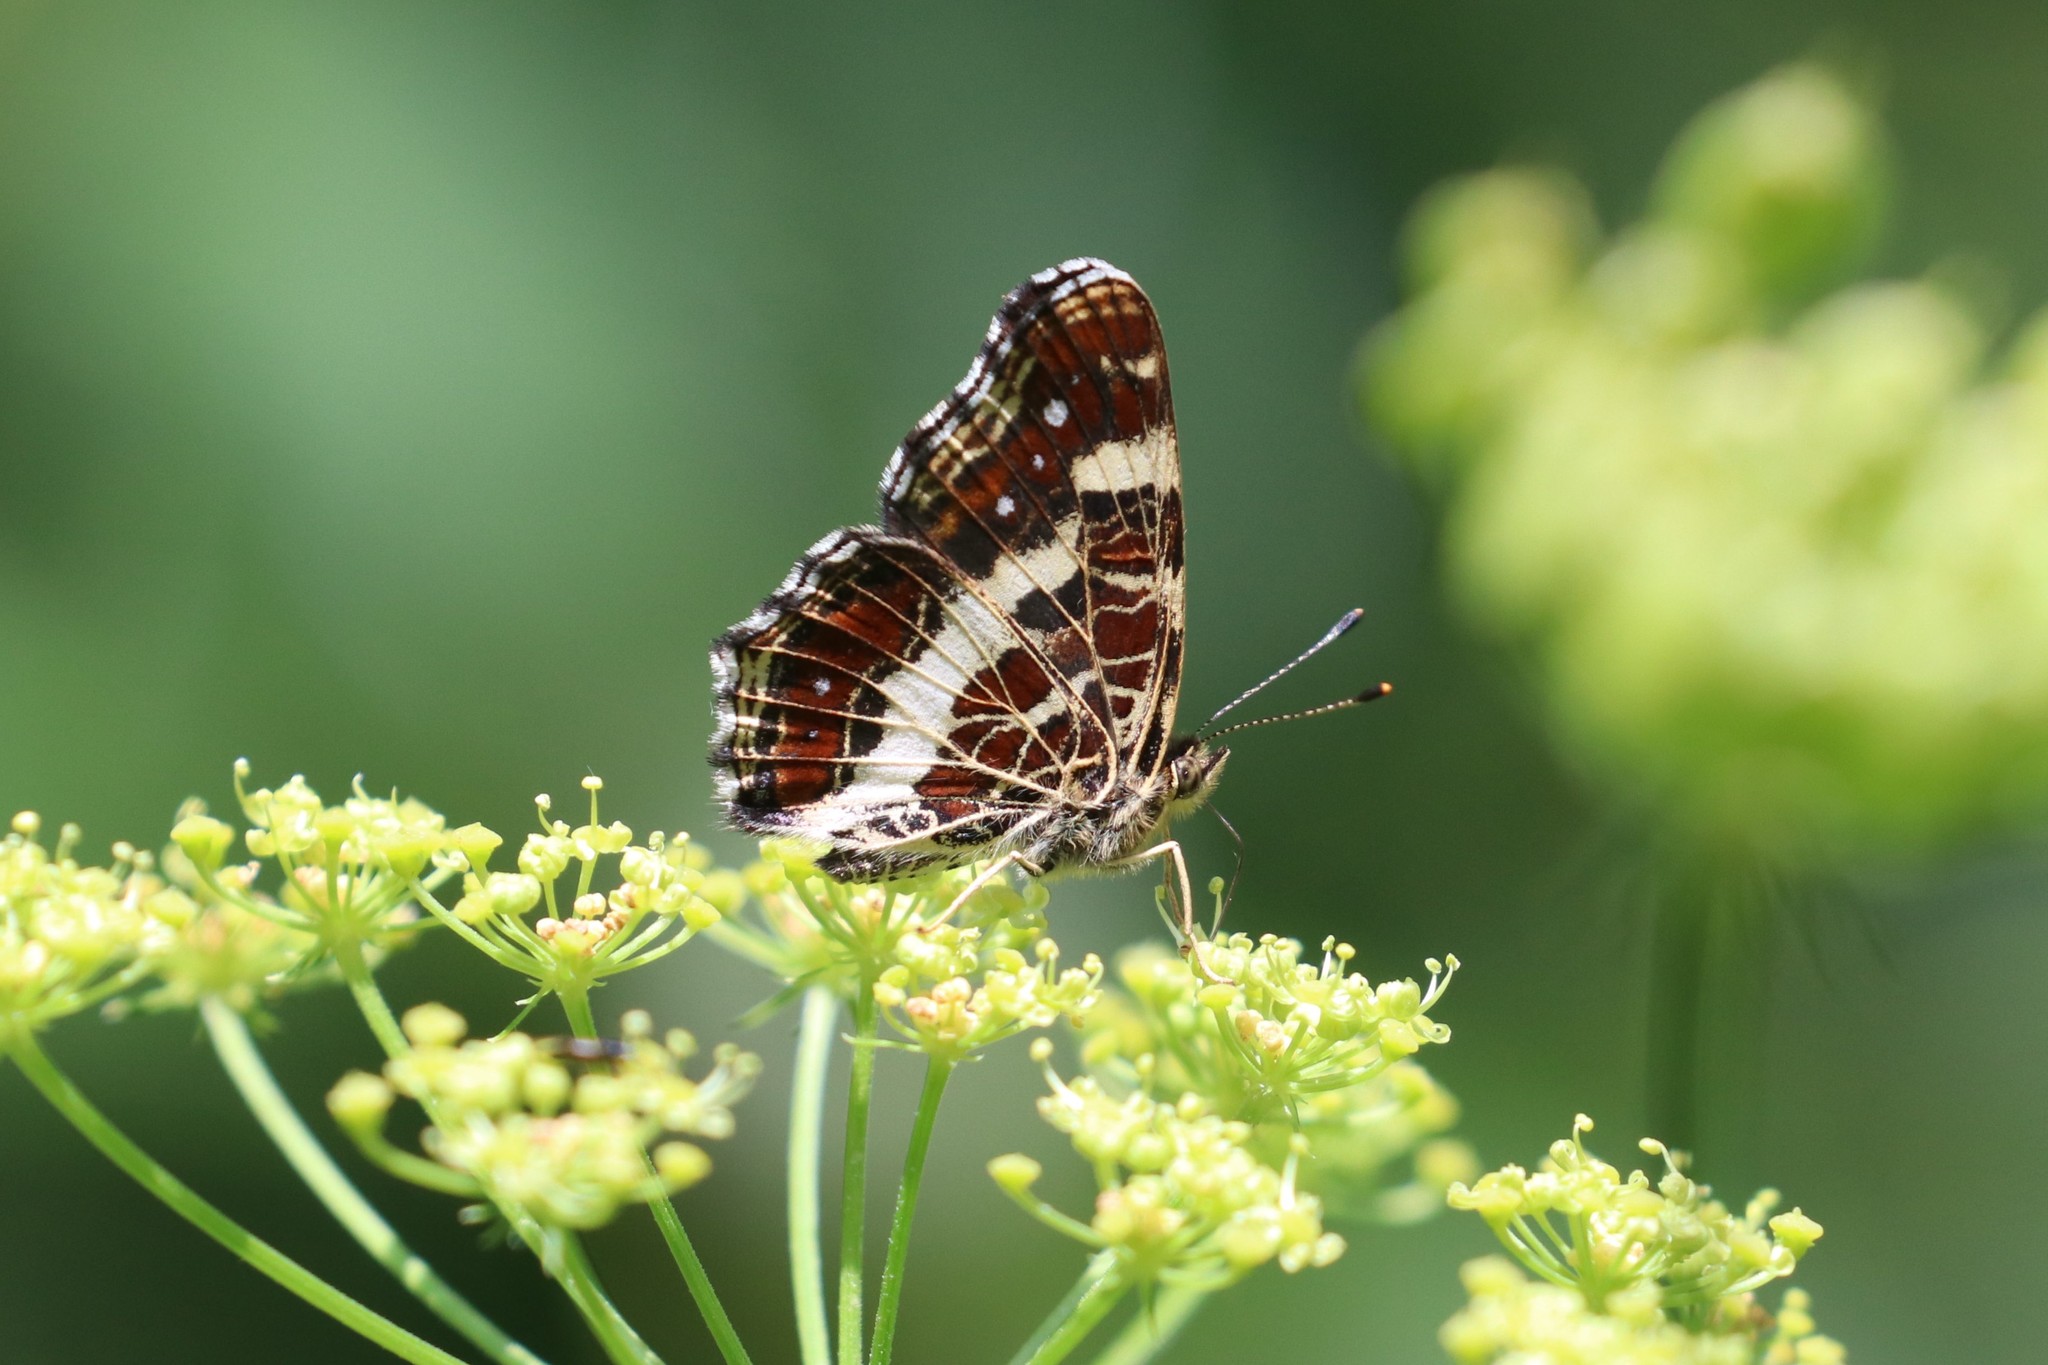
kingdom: Animalia
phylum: Arthropoda
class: Insecta
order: Lepidoptera
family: Nymphalidae
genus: Araschnia
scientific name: Araschnia levana
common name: Map butterfly
